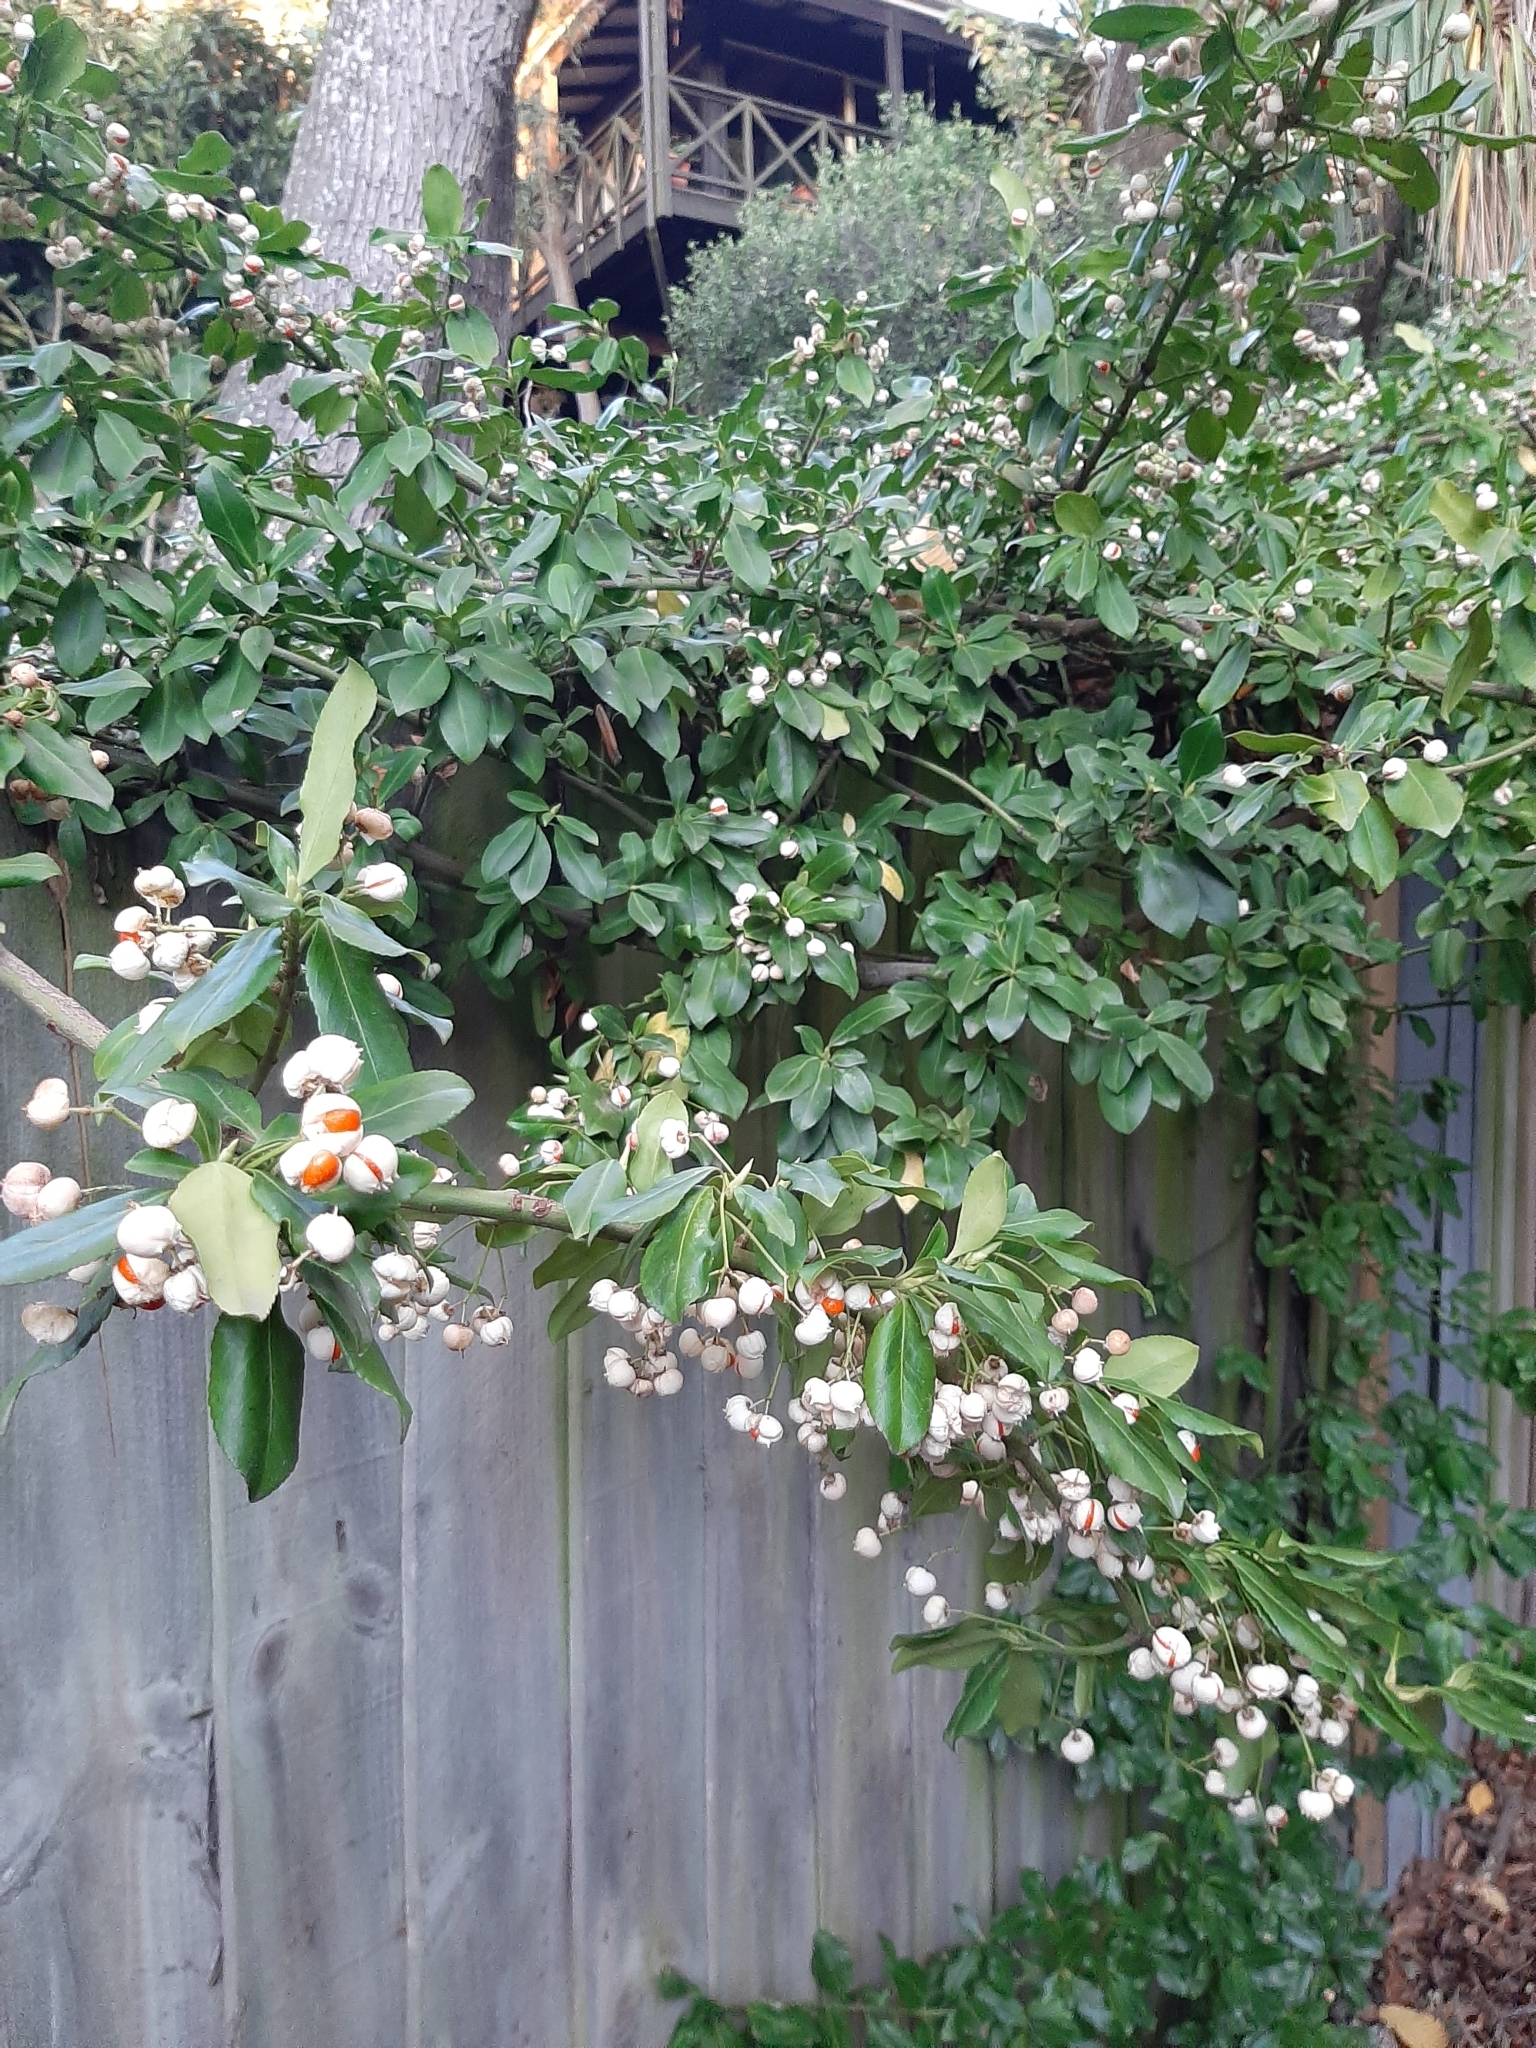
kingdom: Plantae
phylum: Tracheophyta
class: Magnoliopsida
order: Celastrales
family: Celastraceae
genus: Euonymus
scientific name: Euonymus japonicus
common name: Japanese spindletree
